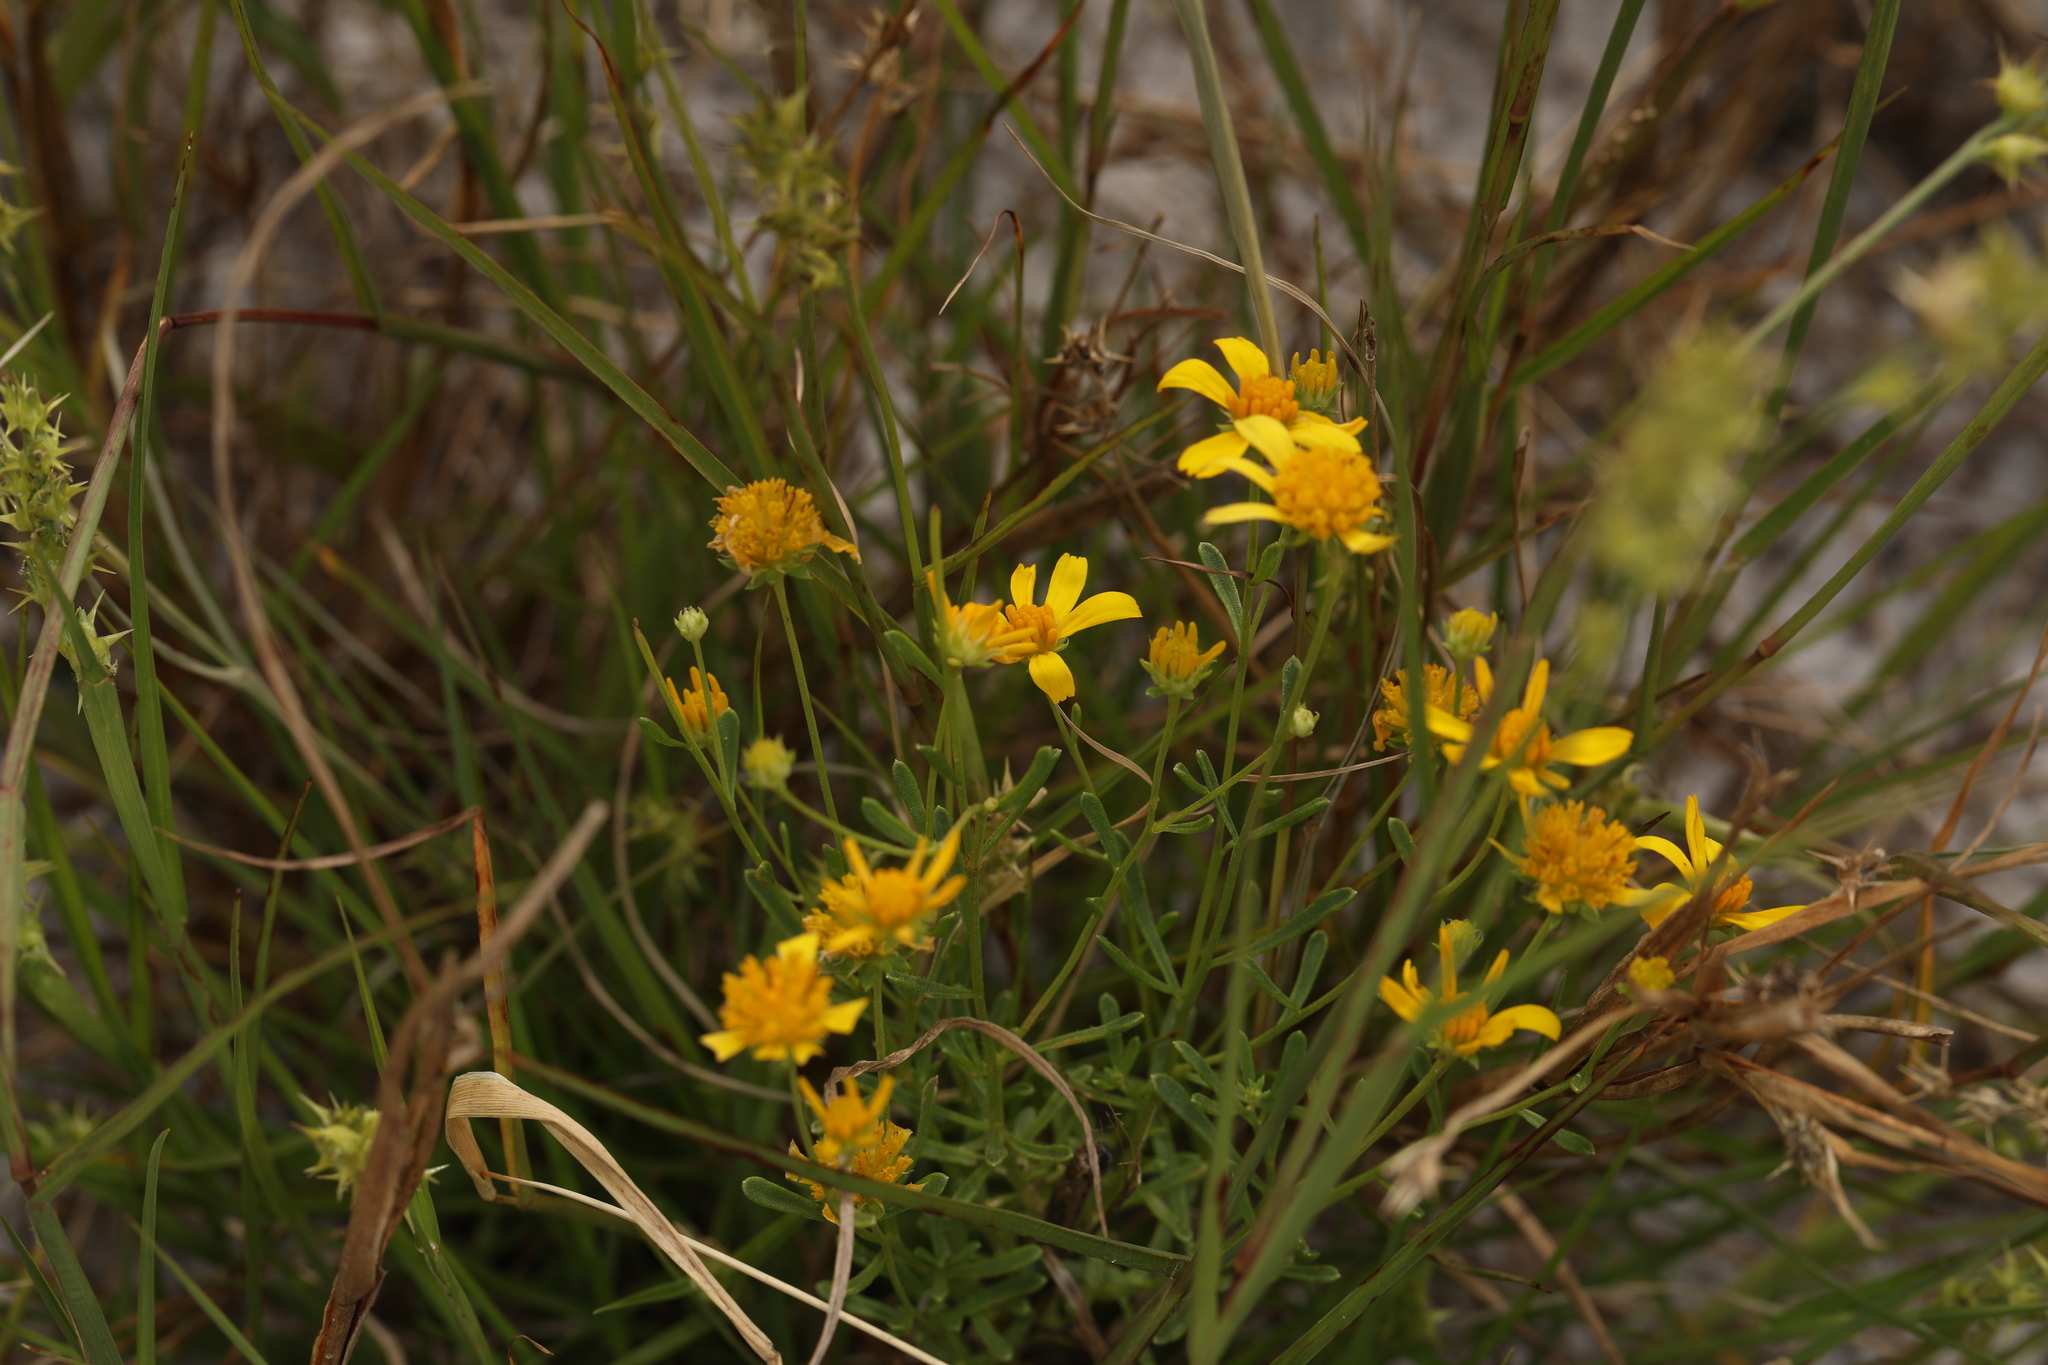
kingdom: Plantae
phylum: Tracheophyta
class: Magnoliopsida
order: Asterales
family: Asteraceae
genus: Balduina
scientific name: Balduina angustifolia
